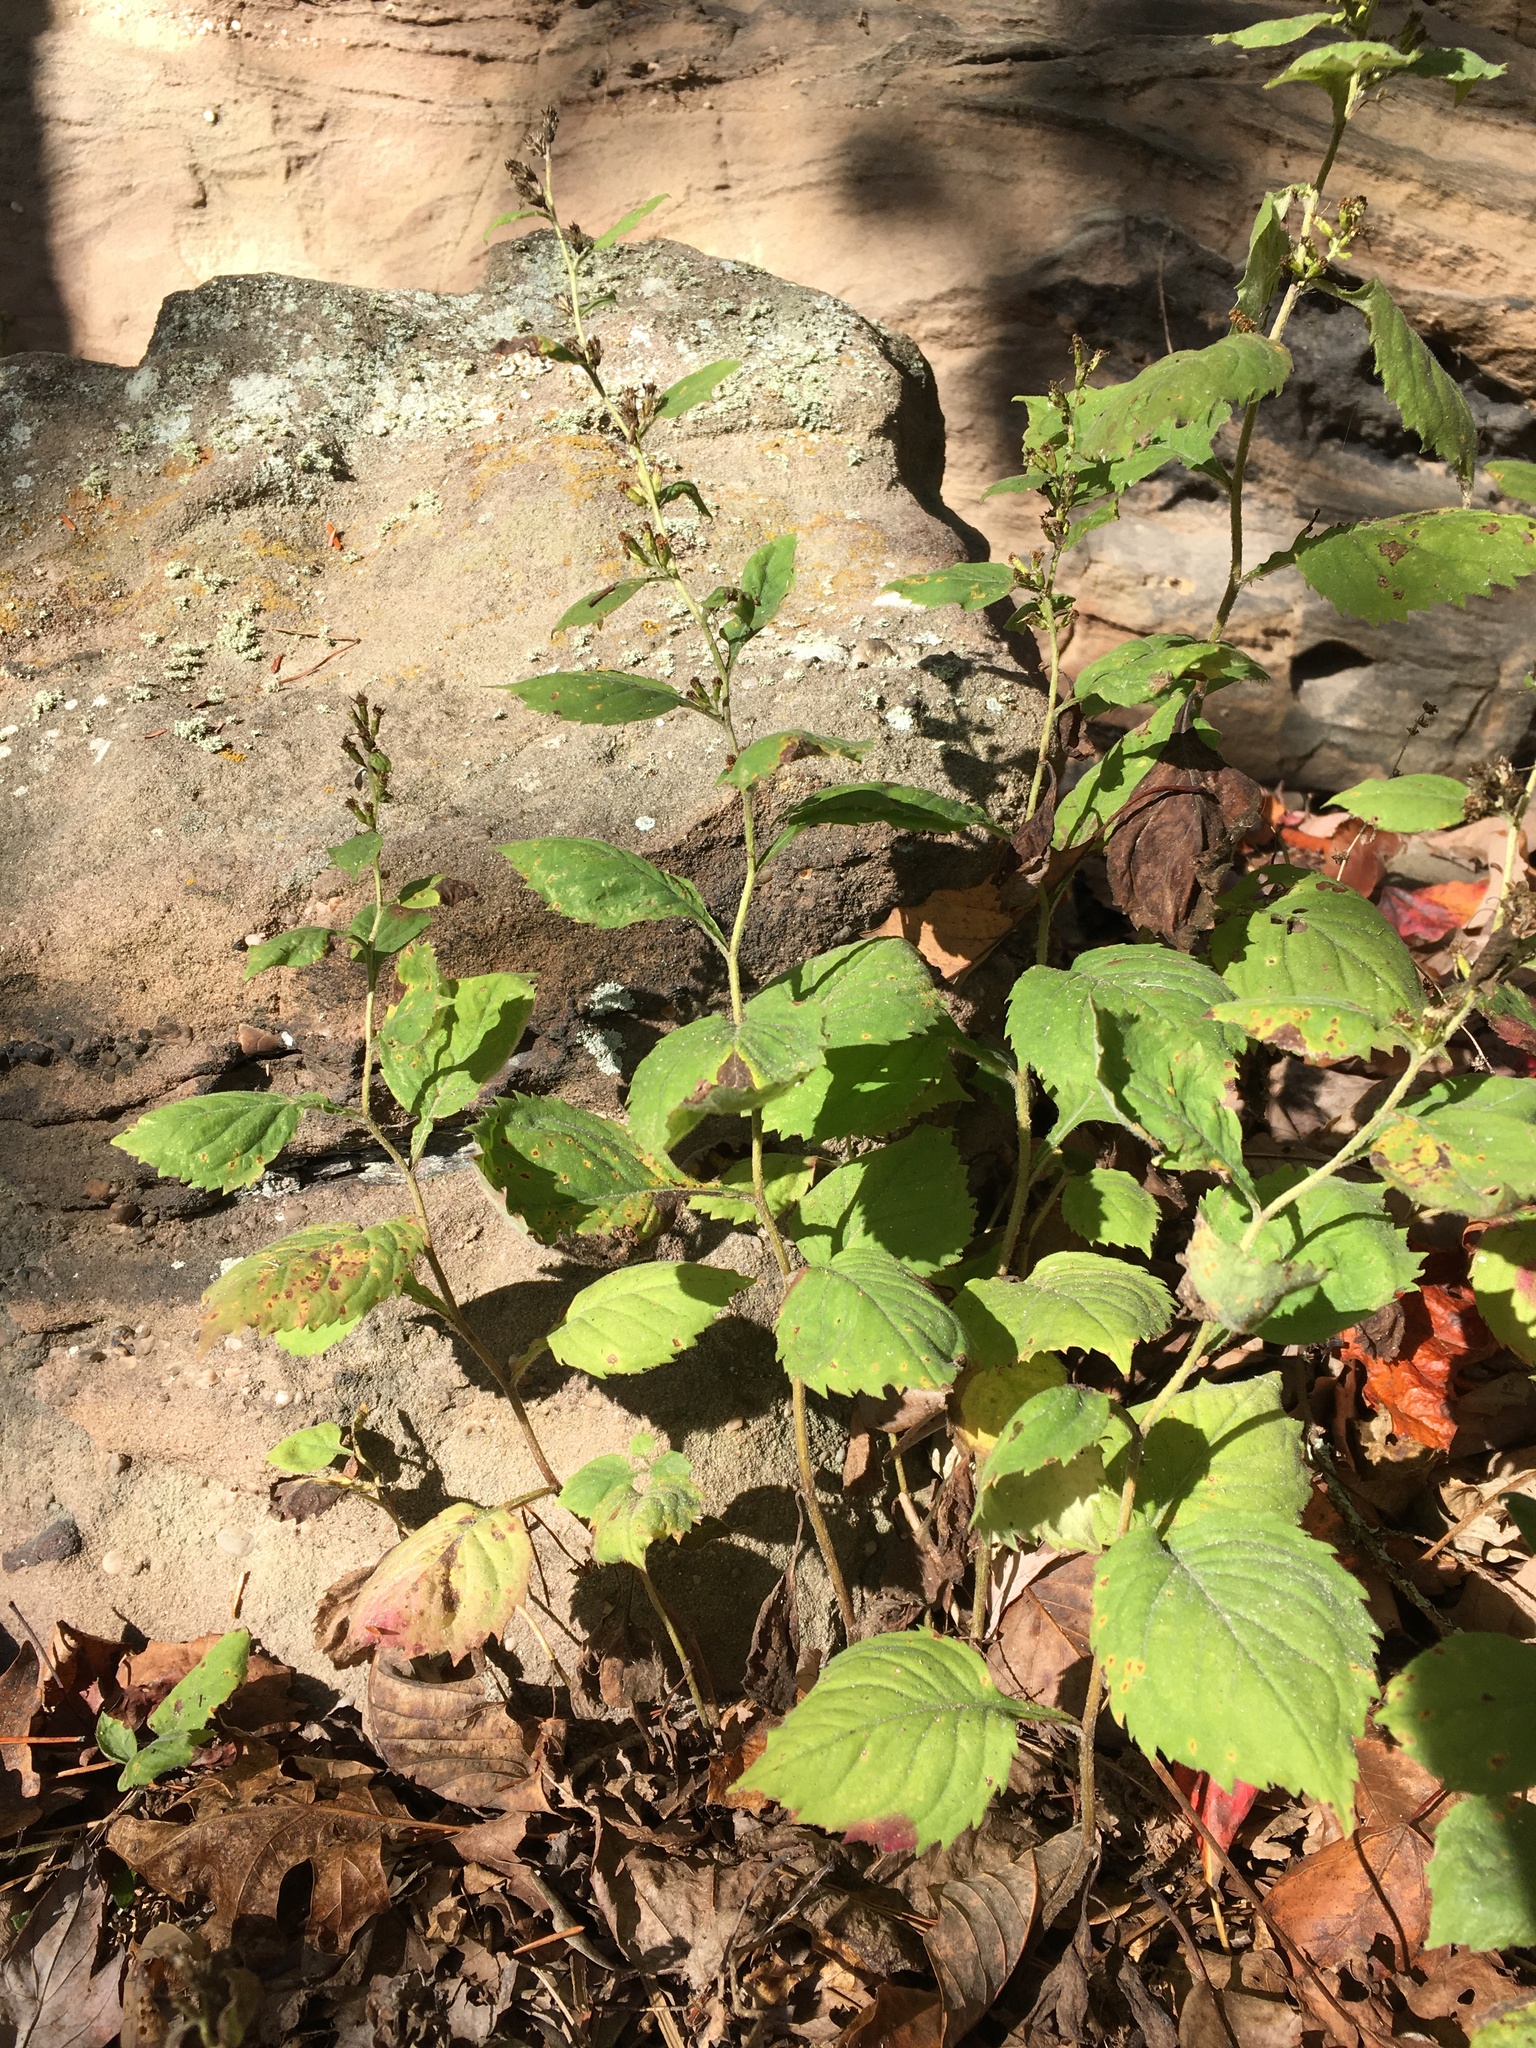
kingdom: Plantae
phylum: Tracheophyta
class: Magnoliopsida
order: Asterales
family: Asteraceae
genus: Solidago
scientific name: Solidago albopilosa
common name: White-hair goldenrod
